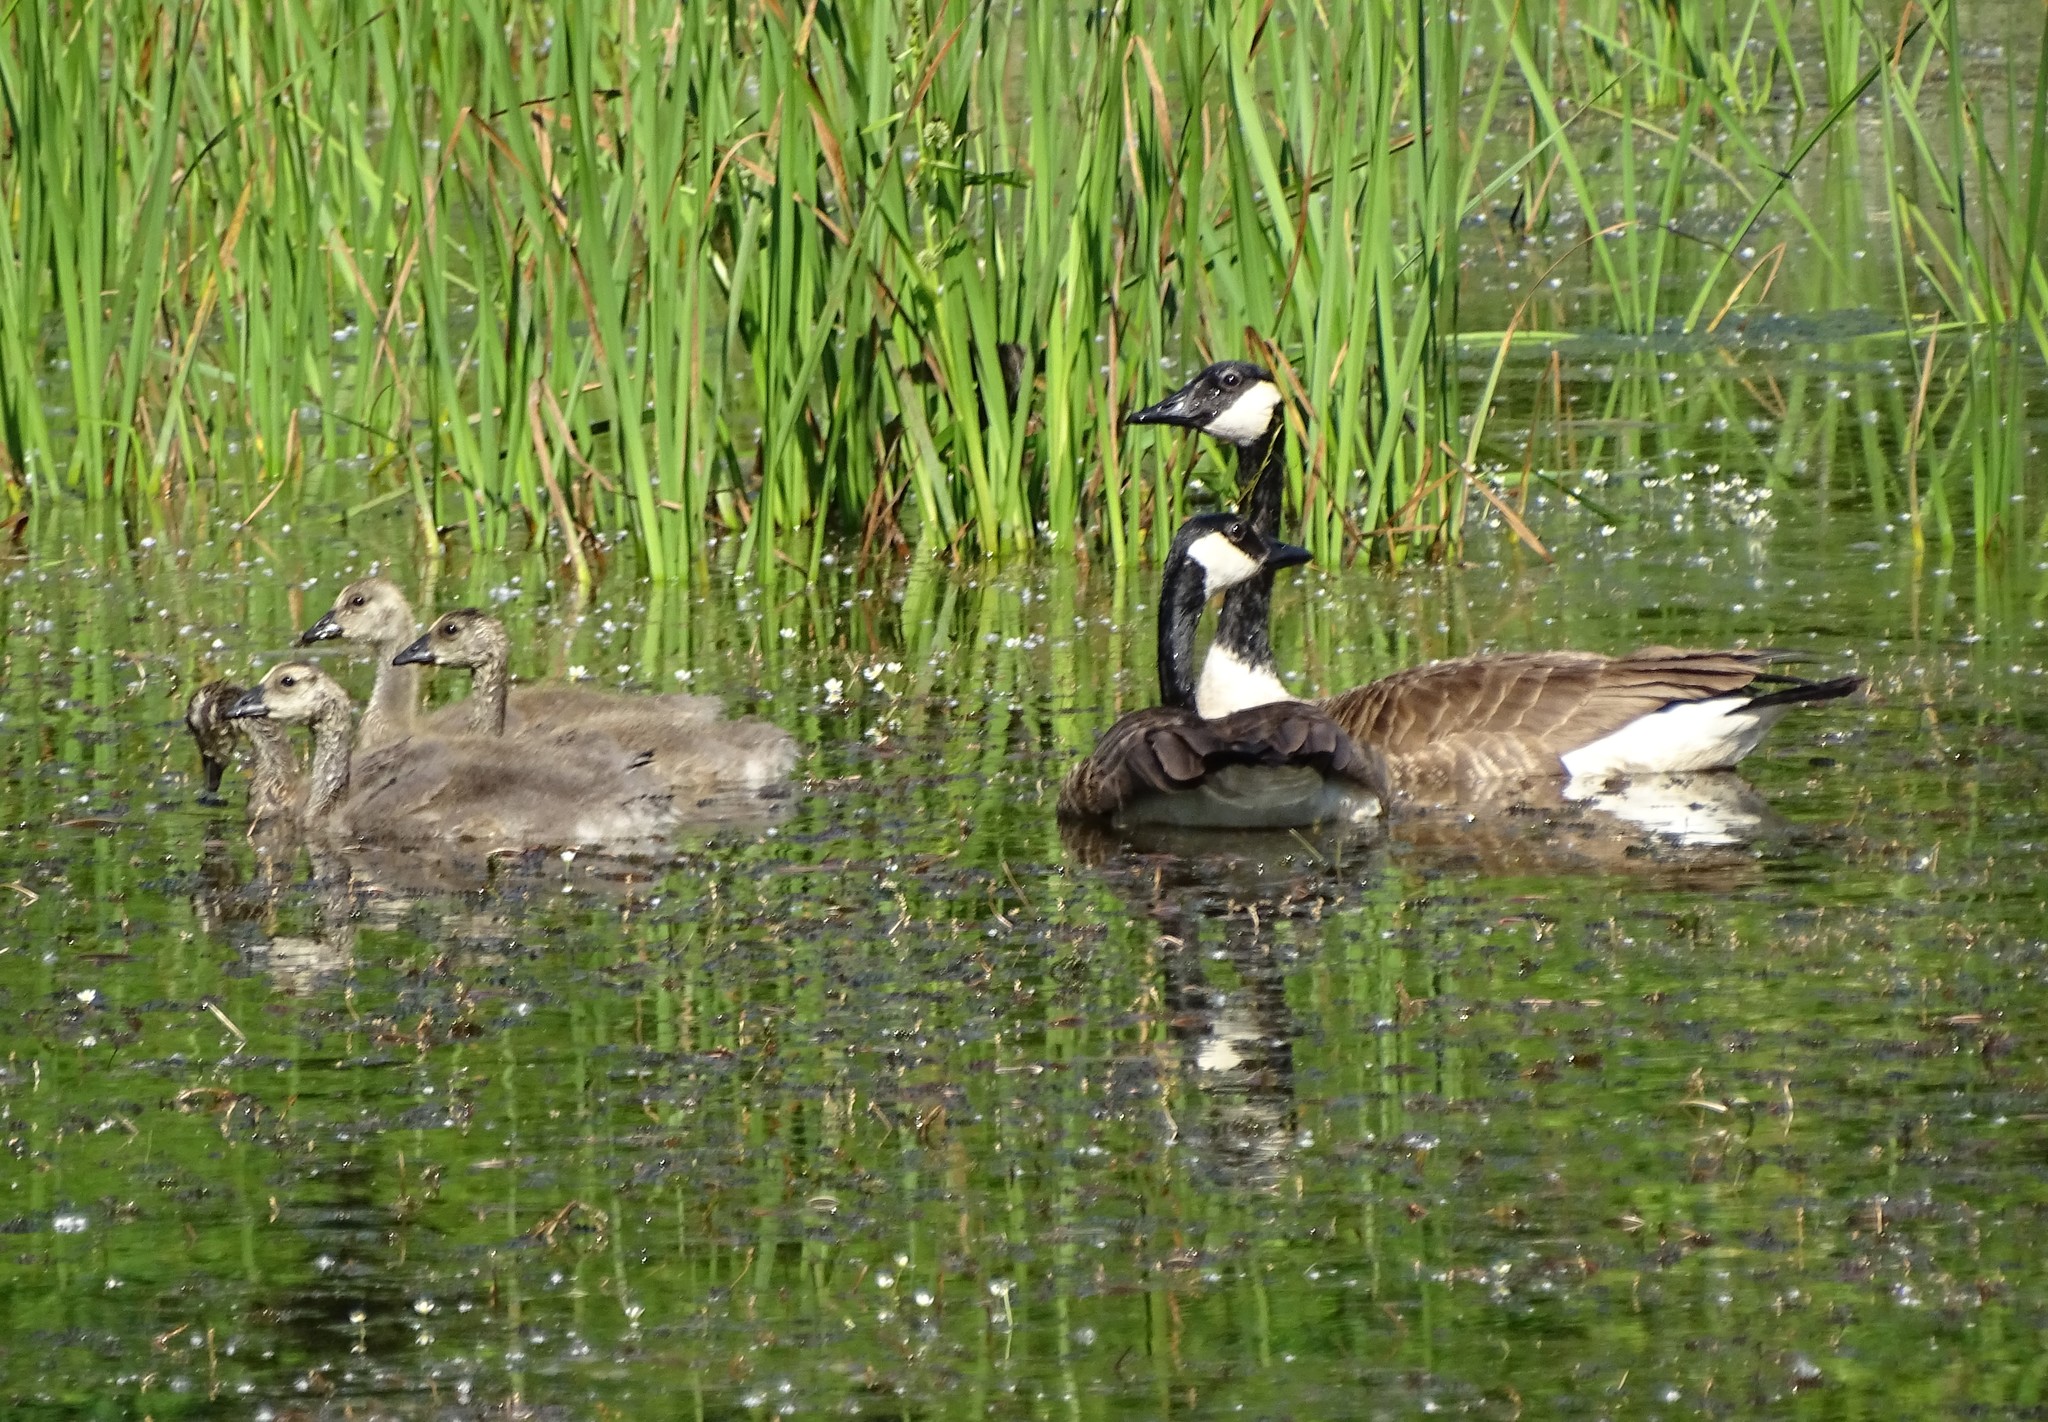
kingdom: Animalia
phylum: Chordata
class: Aves
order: Anseriformes
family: Anatidae
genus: Branta
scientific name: Branta canadensis
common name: Canada goose
